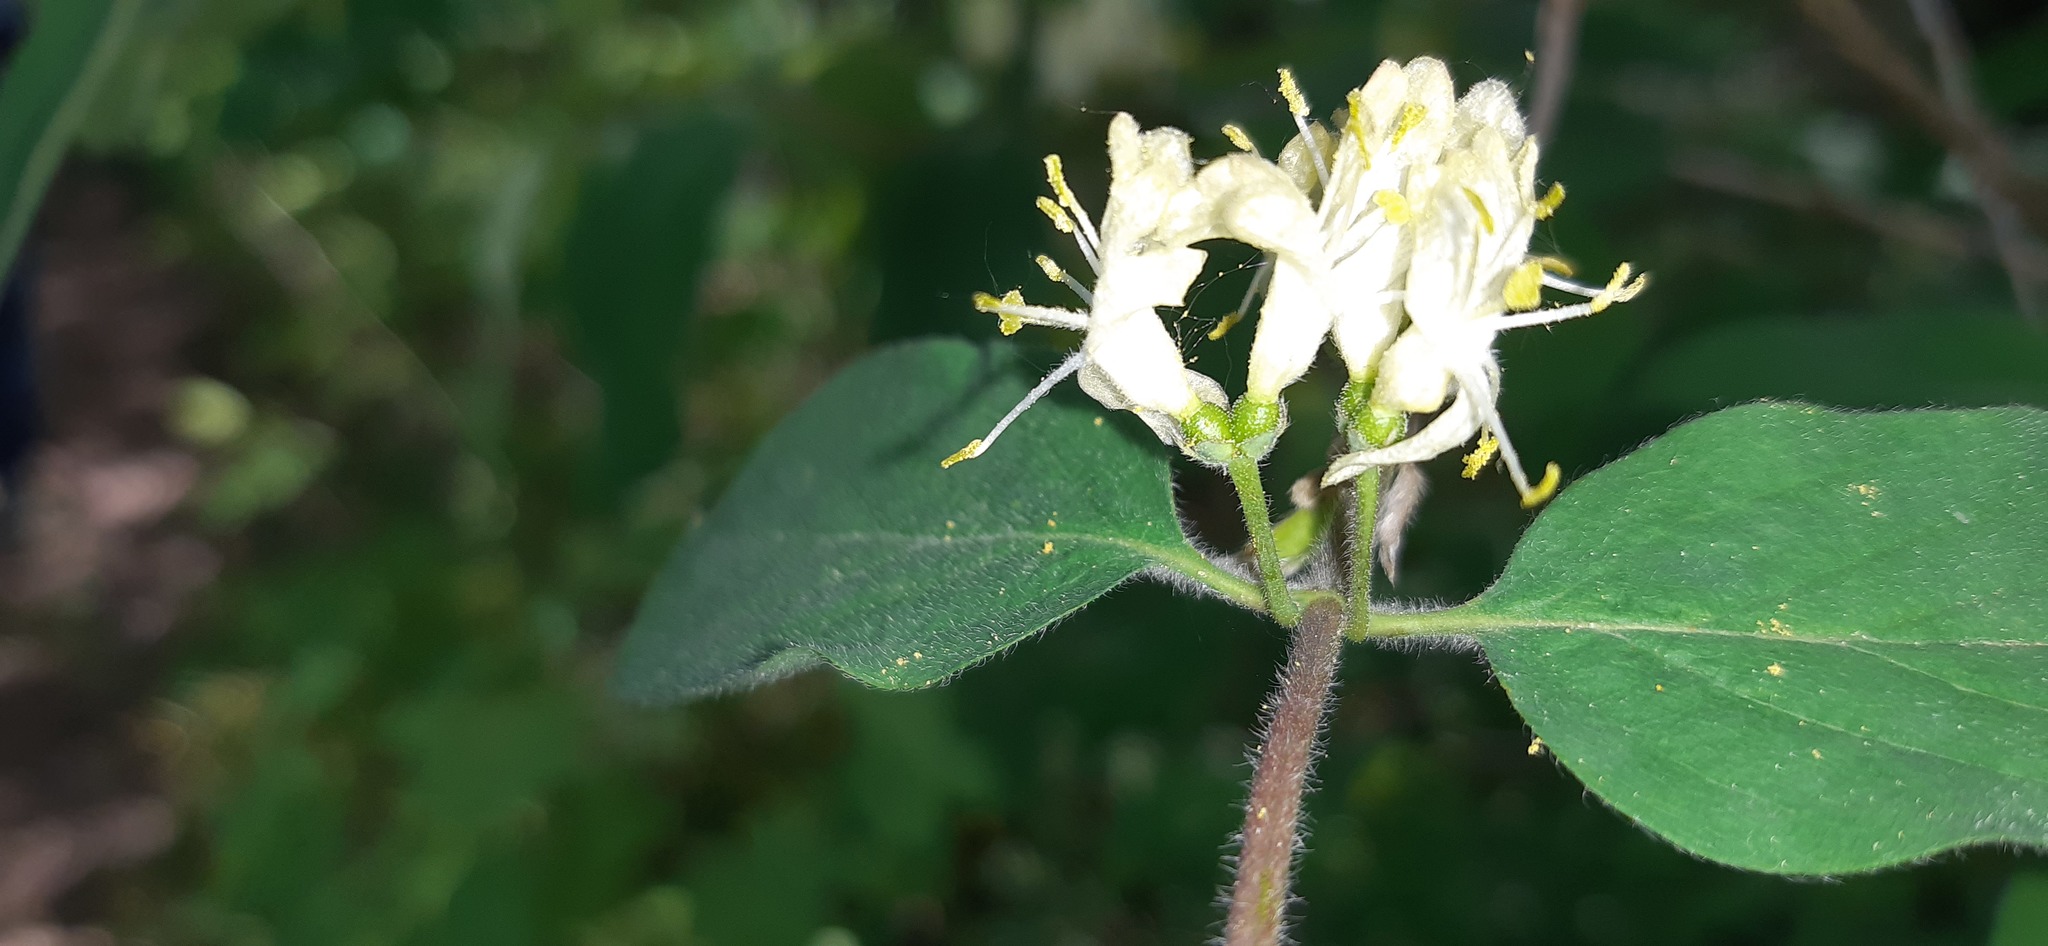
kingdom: Plantae
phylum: Tracheophyta
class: Magnoliopsida
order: Dipsacales
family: Caprifoliaceae
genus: Lonicera
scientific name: Lonicera xylosteum
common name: Fly honeysuckle
